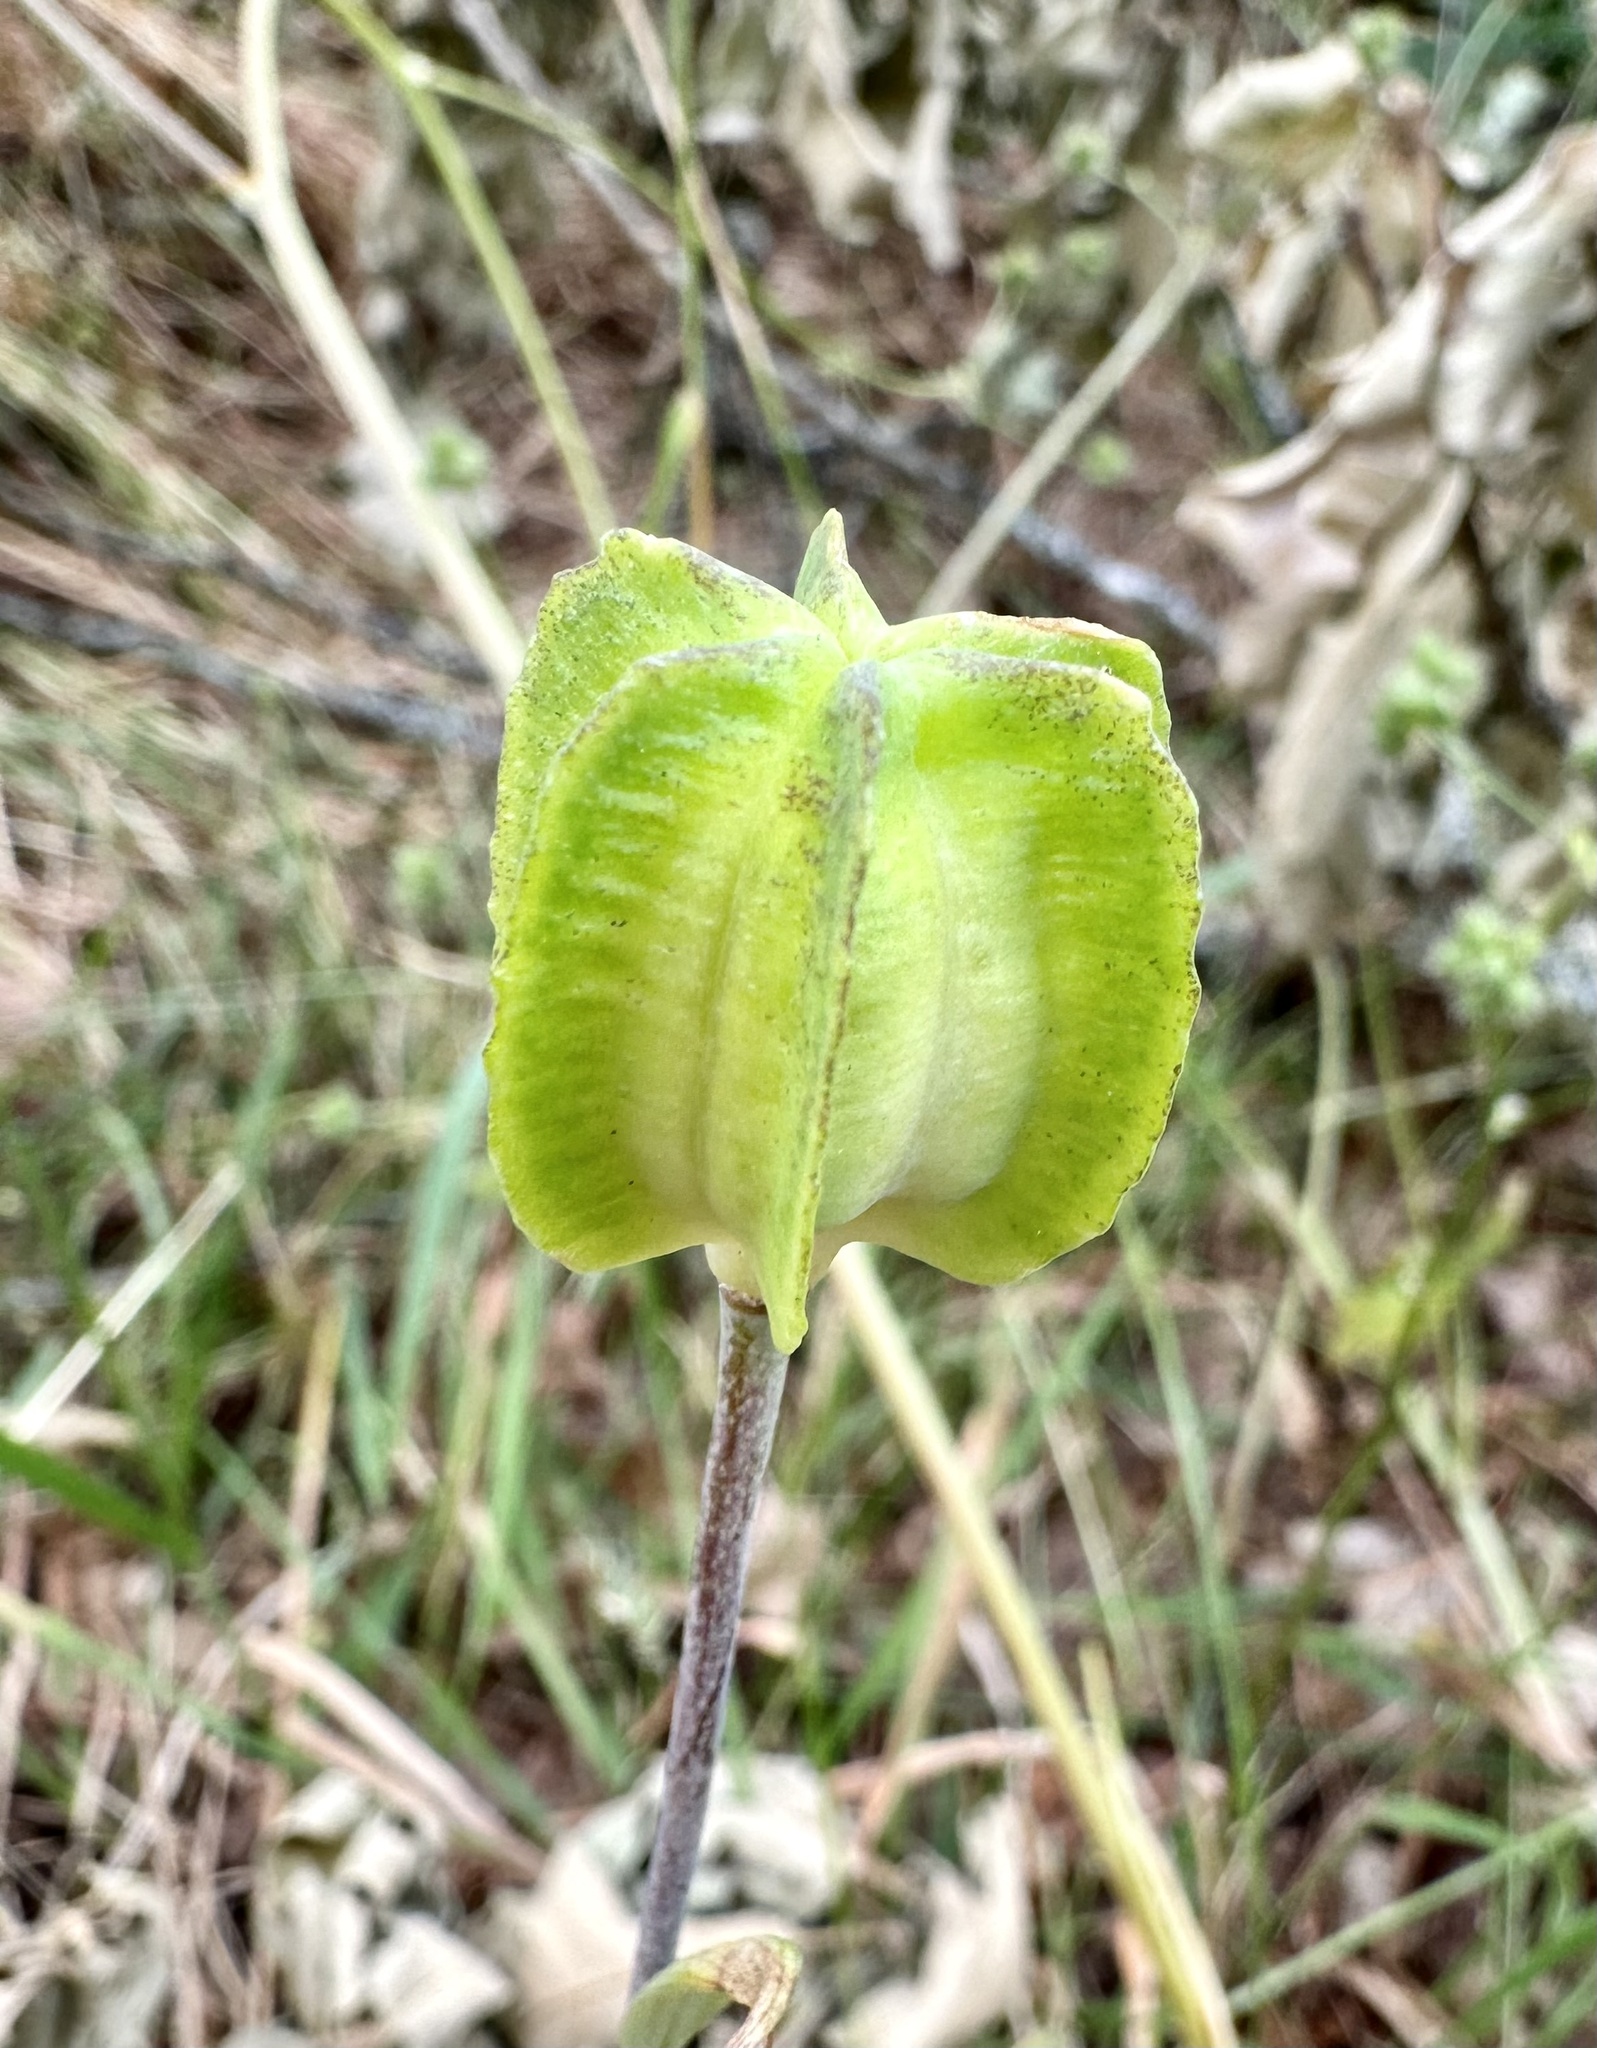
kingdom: Plantae
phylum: Tracheophyta
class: Liliopsida
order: Liliales
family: Liliaceae
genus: Fritillaria
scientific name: Fritillaria affinis
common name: Ojai fritillary
